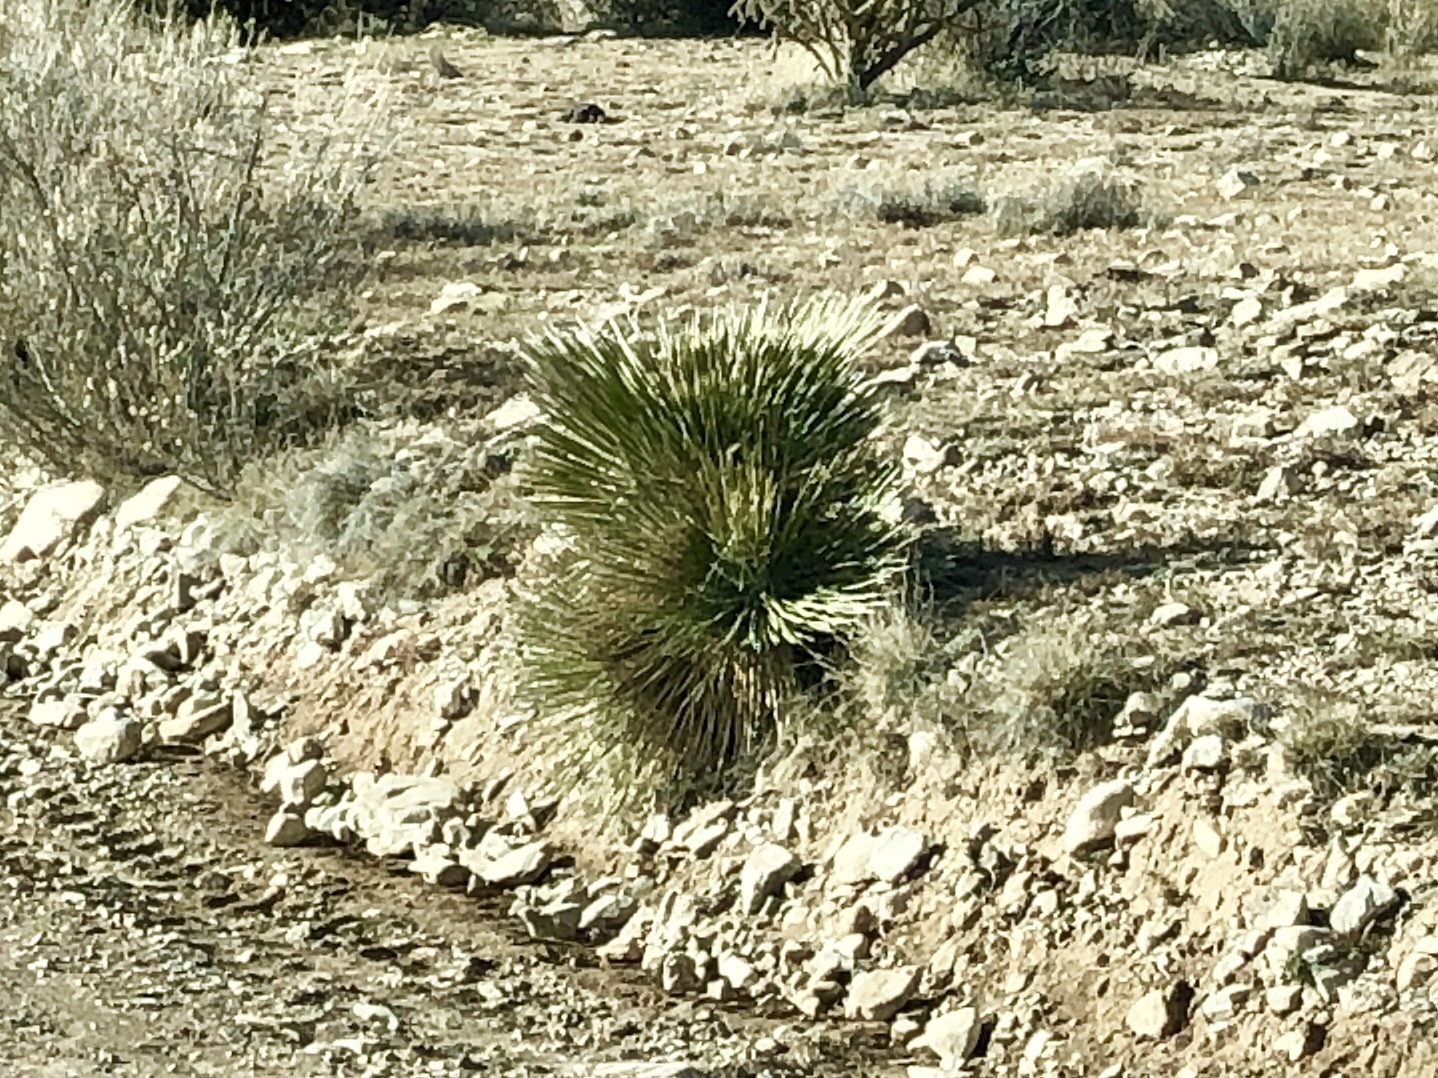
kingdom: Plantae
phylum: Tracheophyta
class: Liliopsida
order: Asparagales
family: Asparagaceae
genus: Yucca
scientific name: Yucca elata
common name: Palmella
